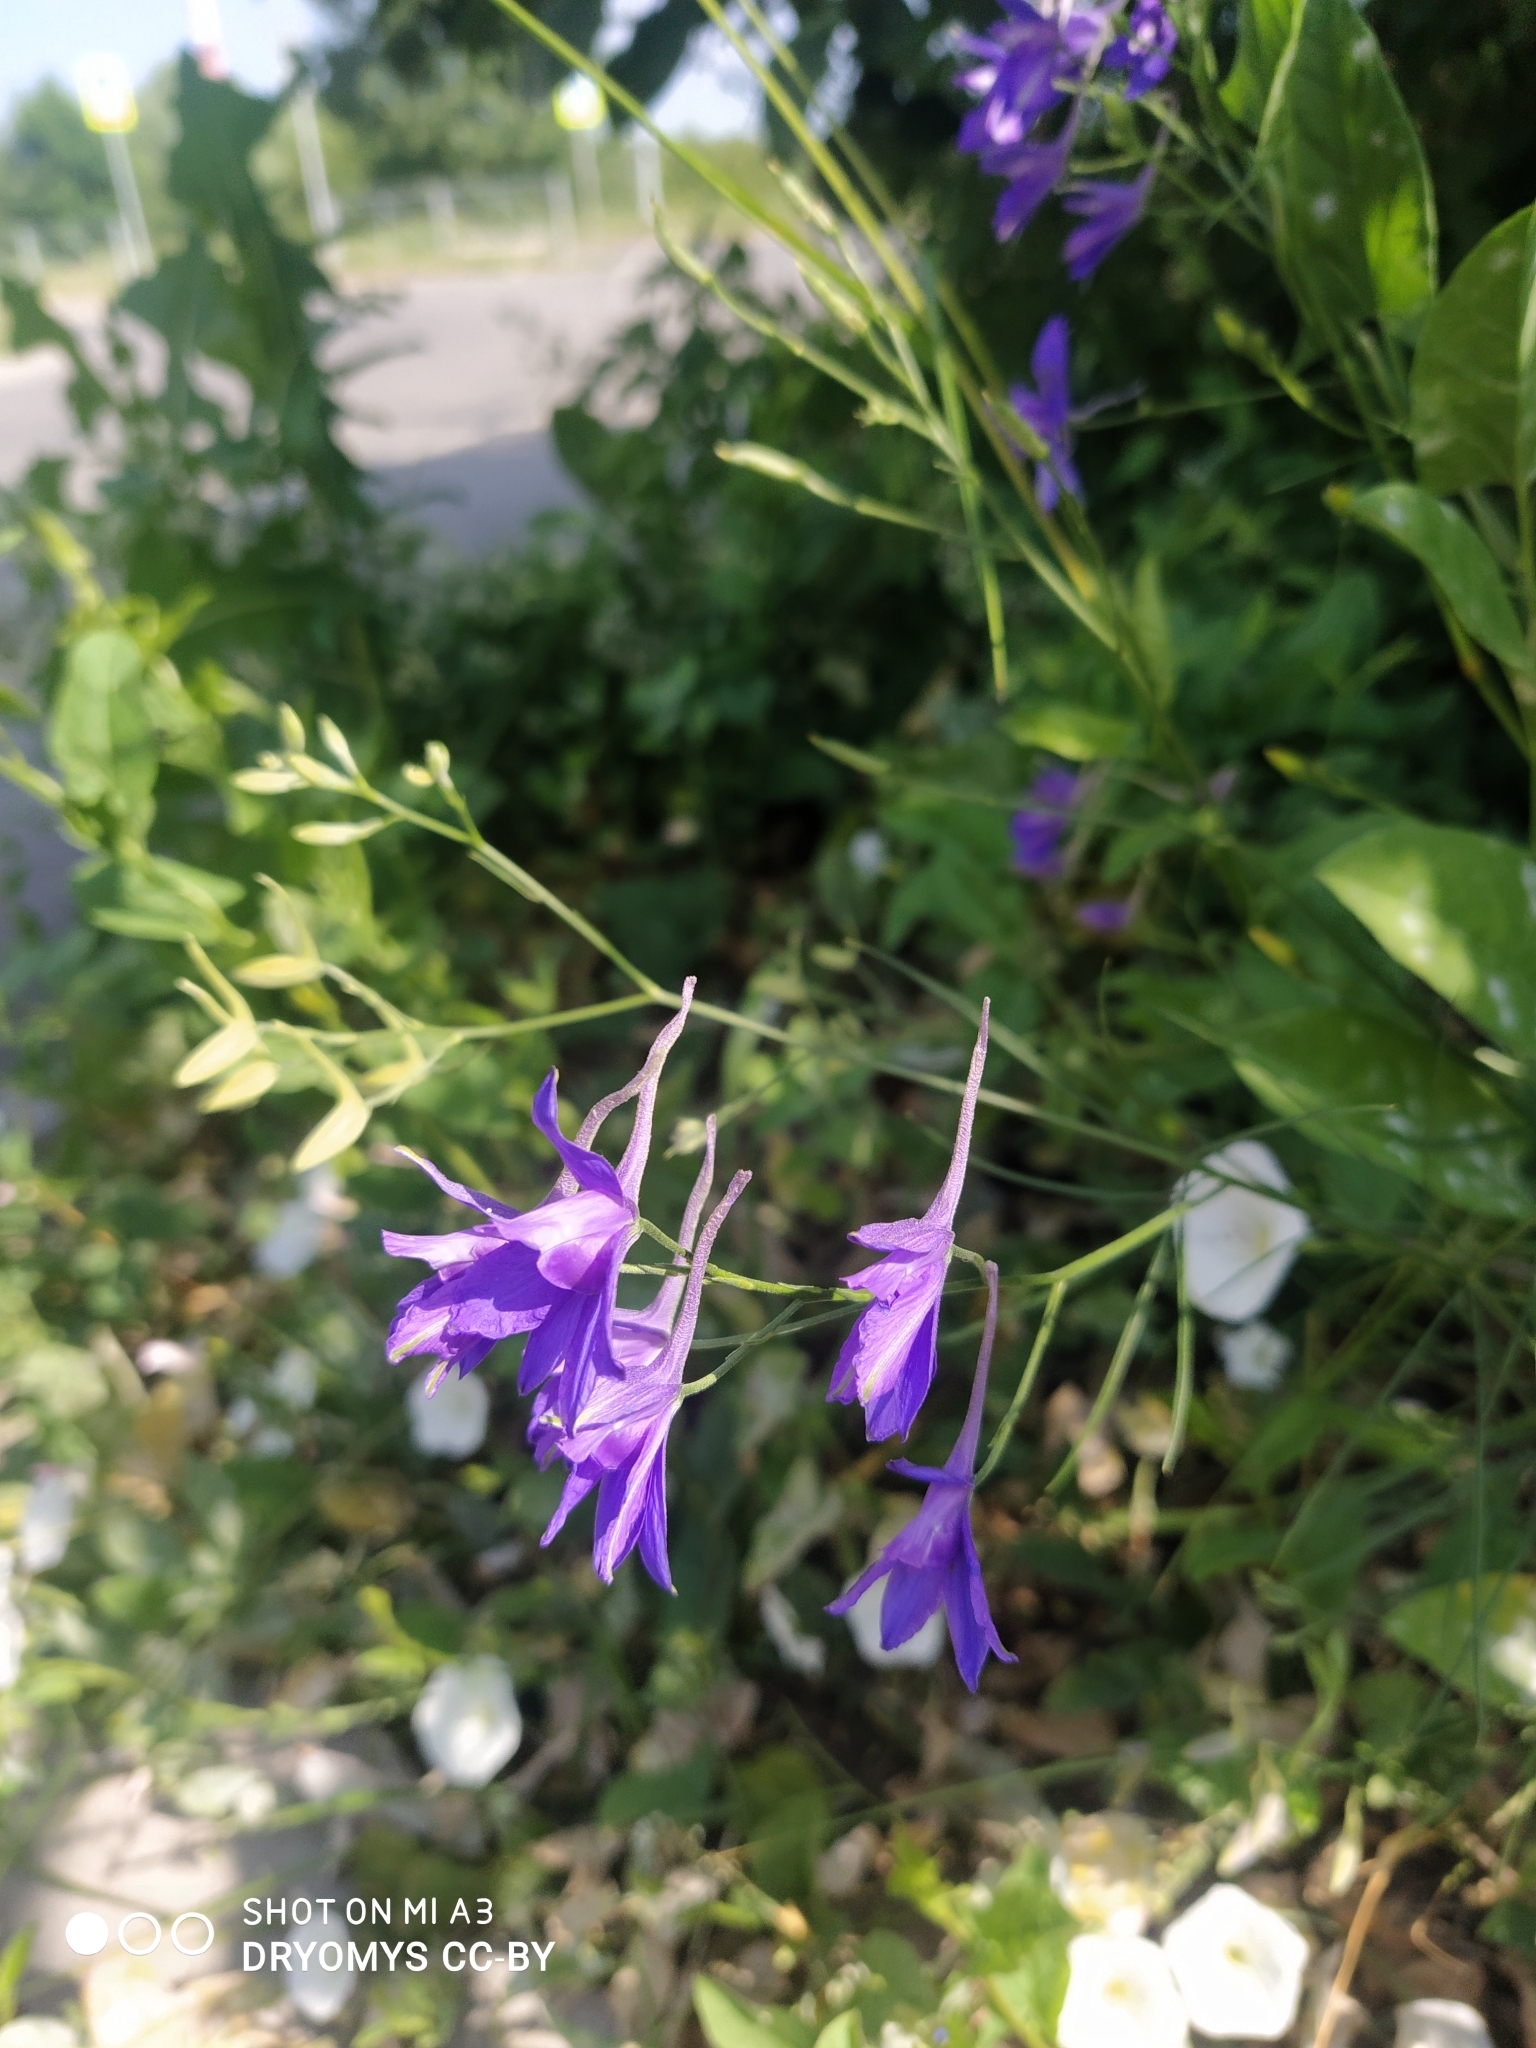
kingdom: Plantae
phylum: Tracheophyta
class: Magnoliopsida
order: Ranunculales
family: Ranunculaceae
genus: Delphinium
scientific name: Delphinium consolida
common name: Branching larkspur
